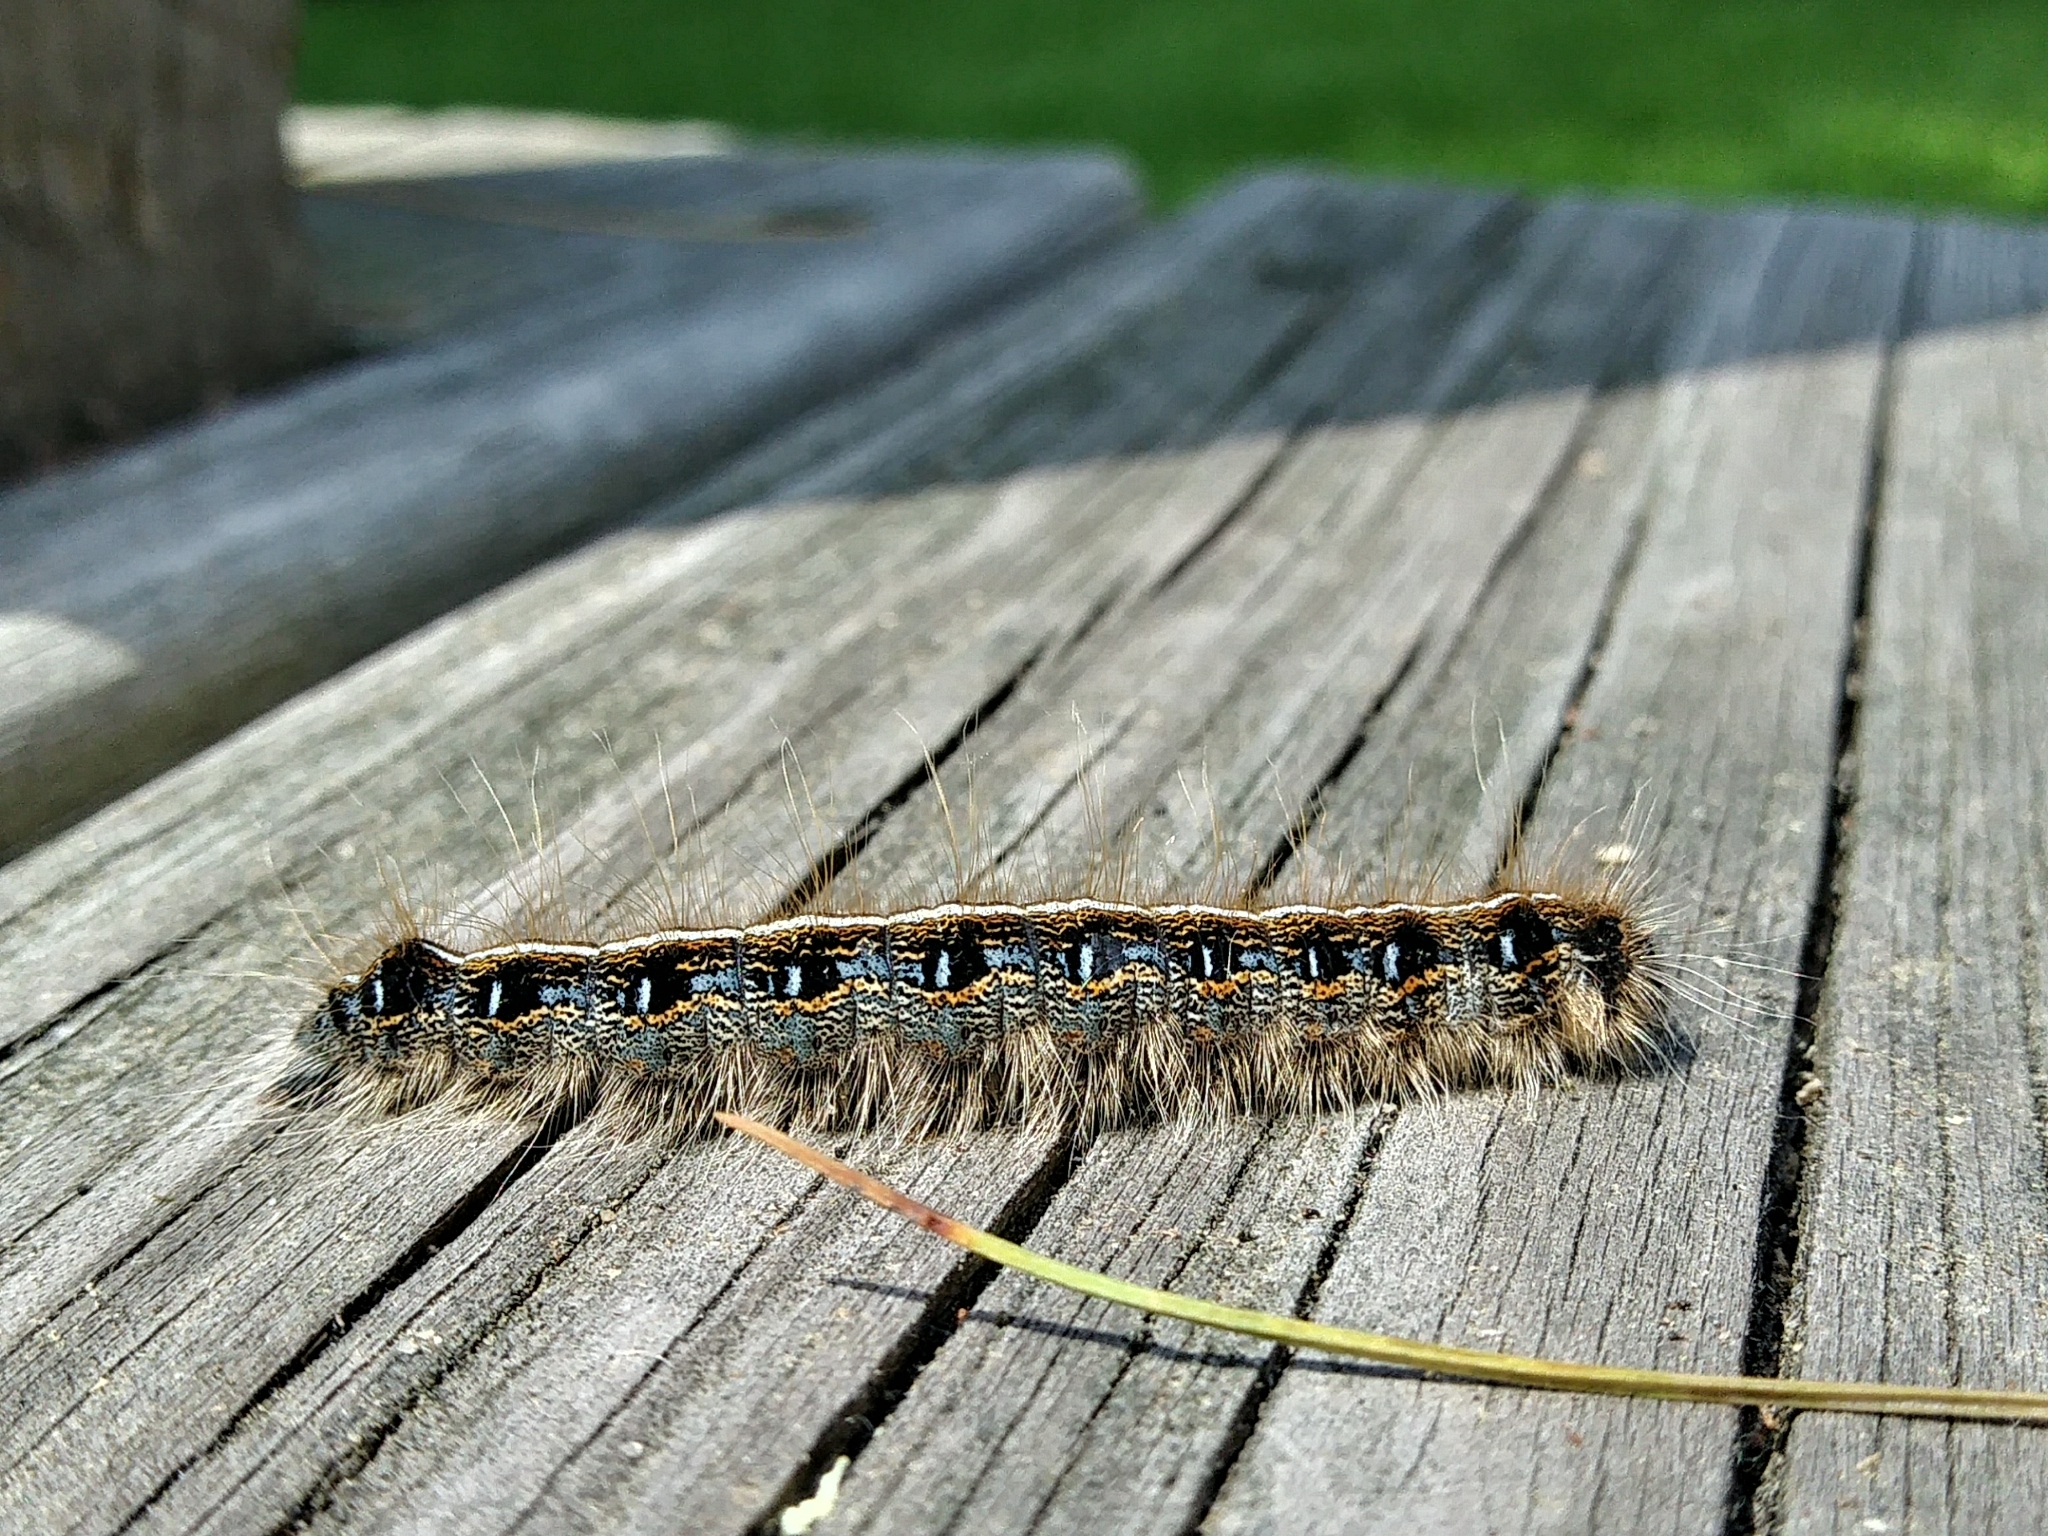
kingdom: Animalia
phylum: Arthropoda
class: Insecta
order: Lepidoptera
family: Lasiocampidae
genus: Malacosoma
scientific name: Malacosoma americana
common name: Eastern tent caterpillar moth
